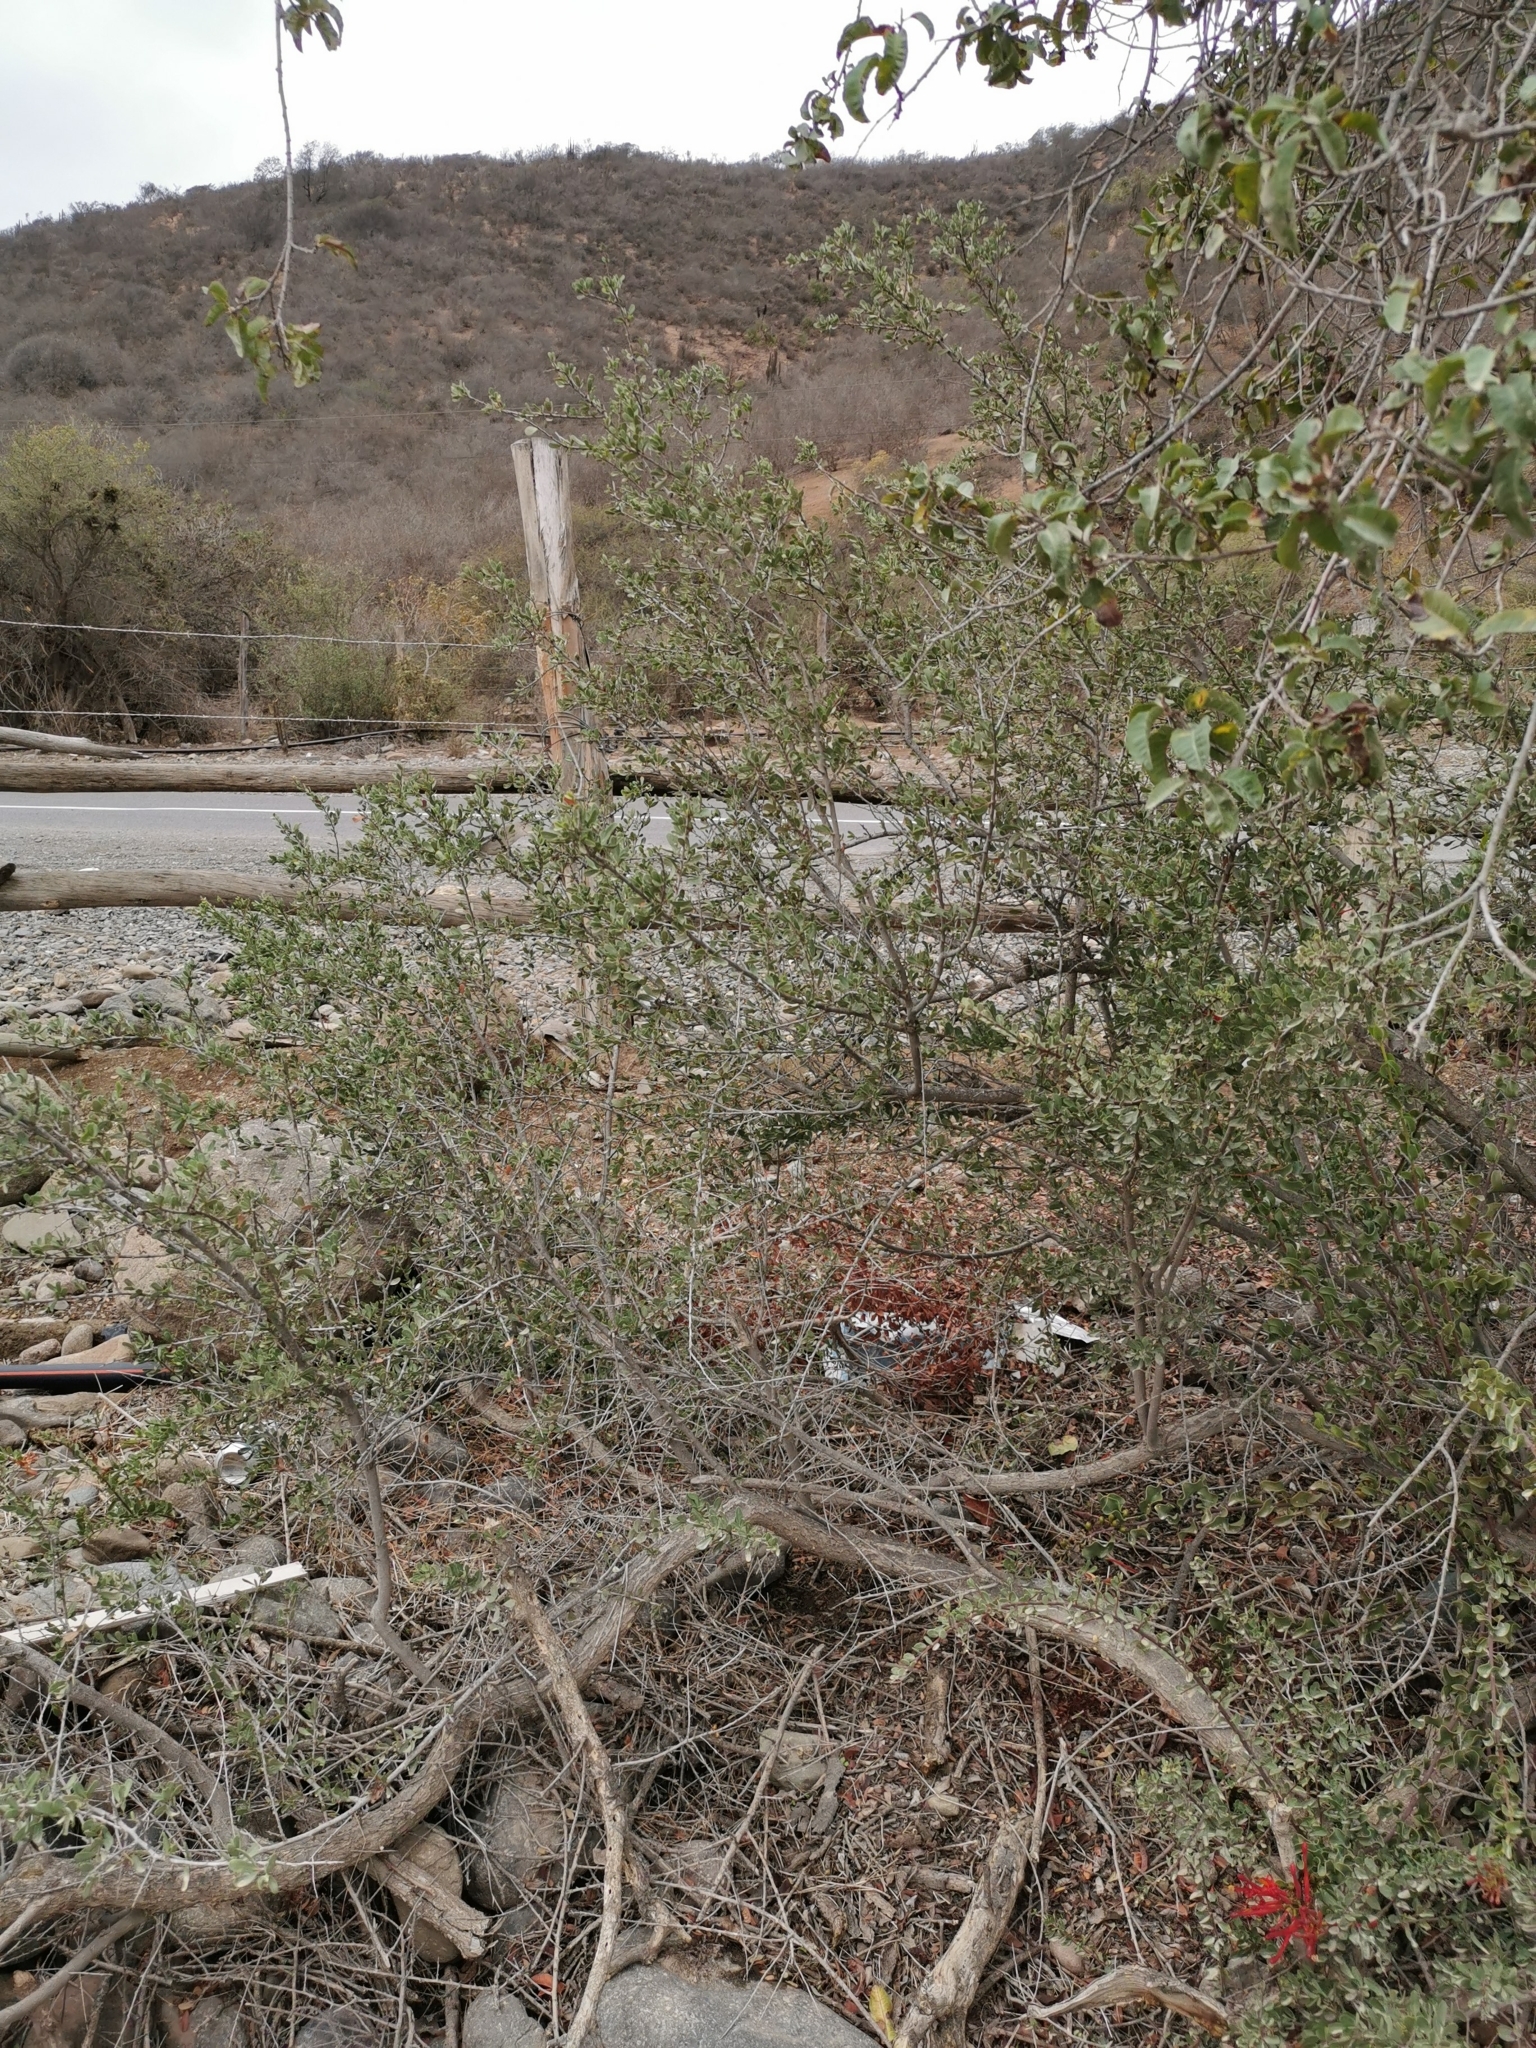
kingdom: Plantae
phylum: Tracheophyta
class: Magnoliopsida
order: Sapindales
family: Anacardiaceae
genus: Schinus
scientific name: Schinus polygama
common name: Hardee peppertree
